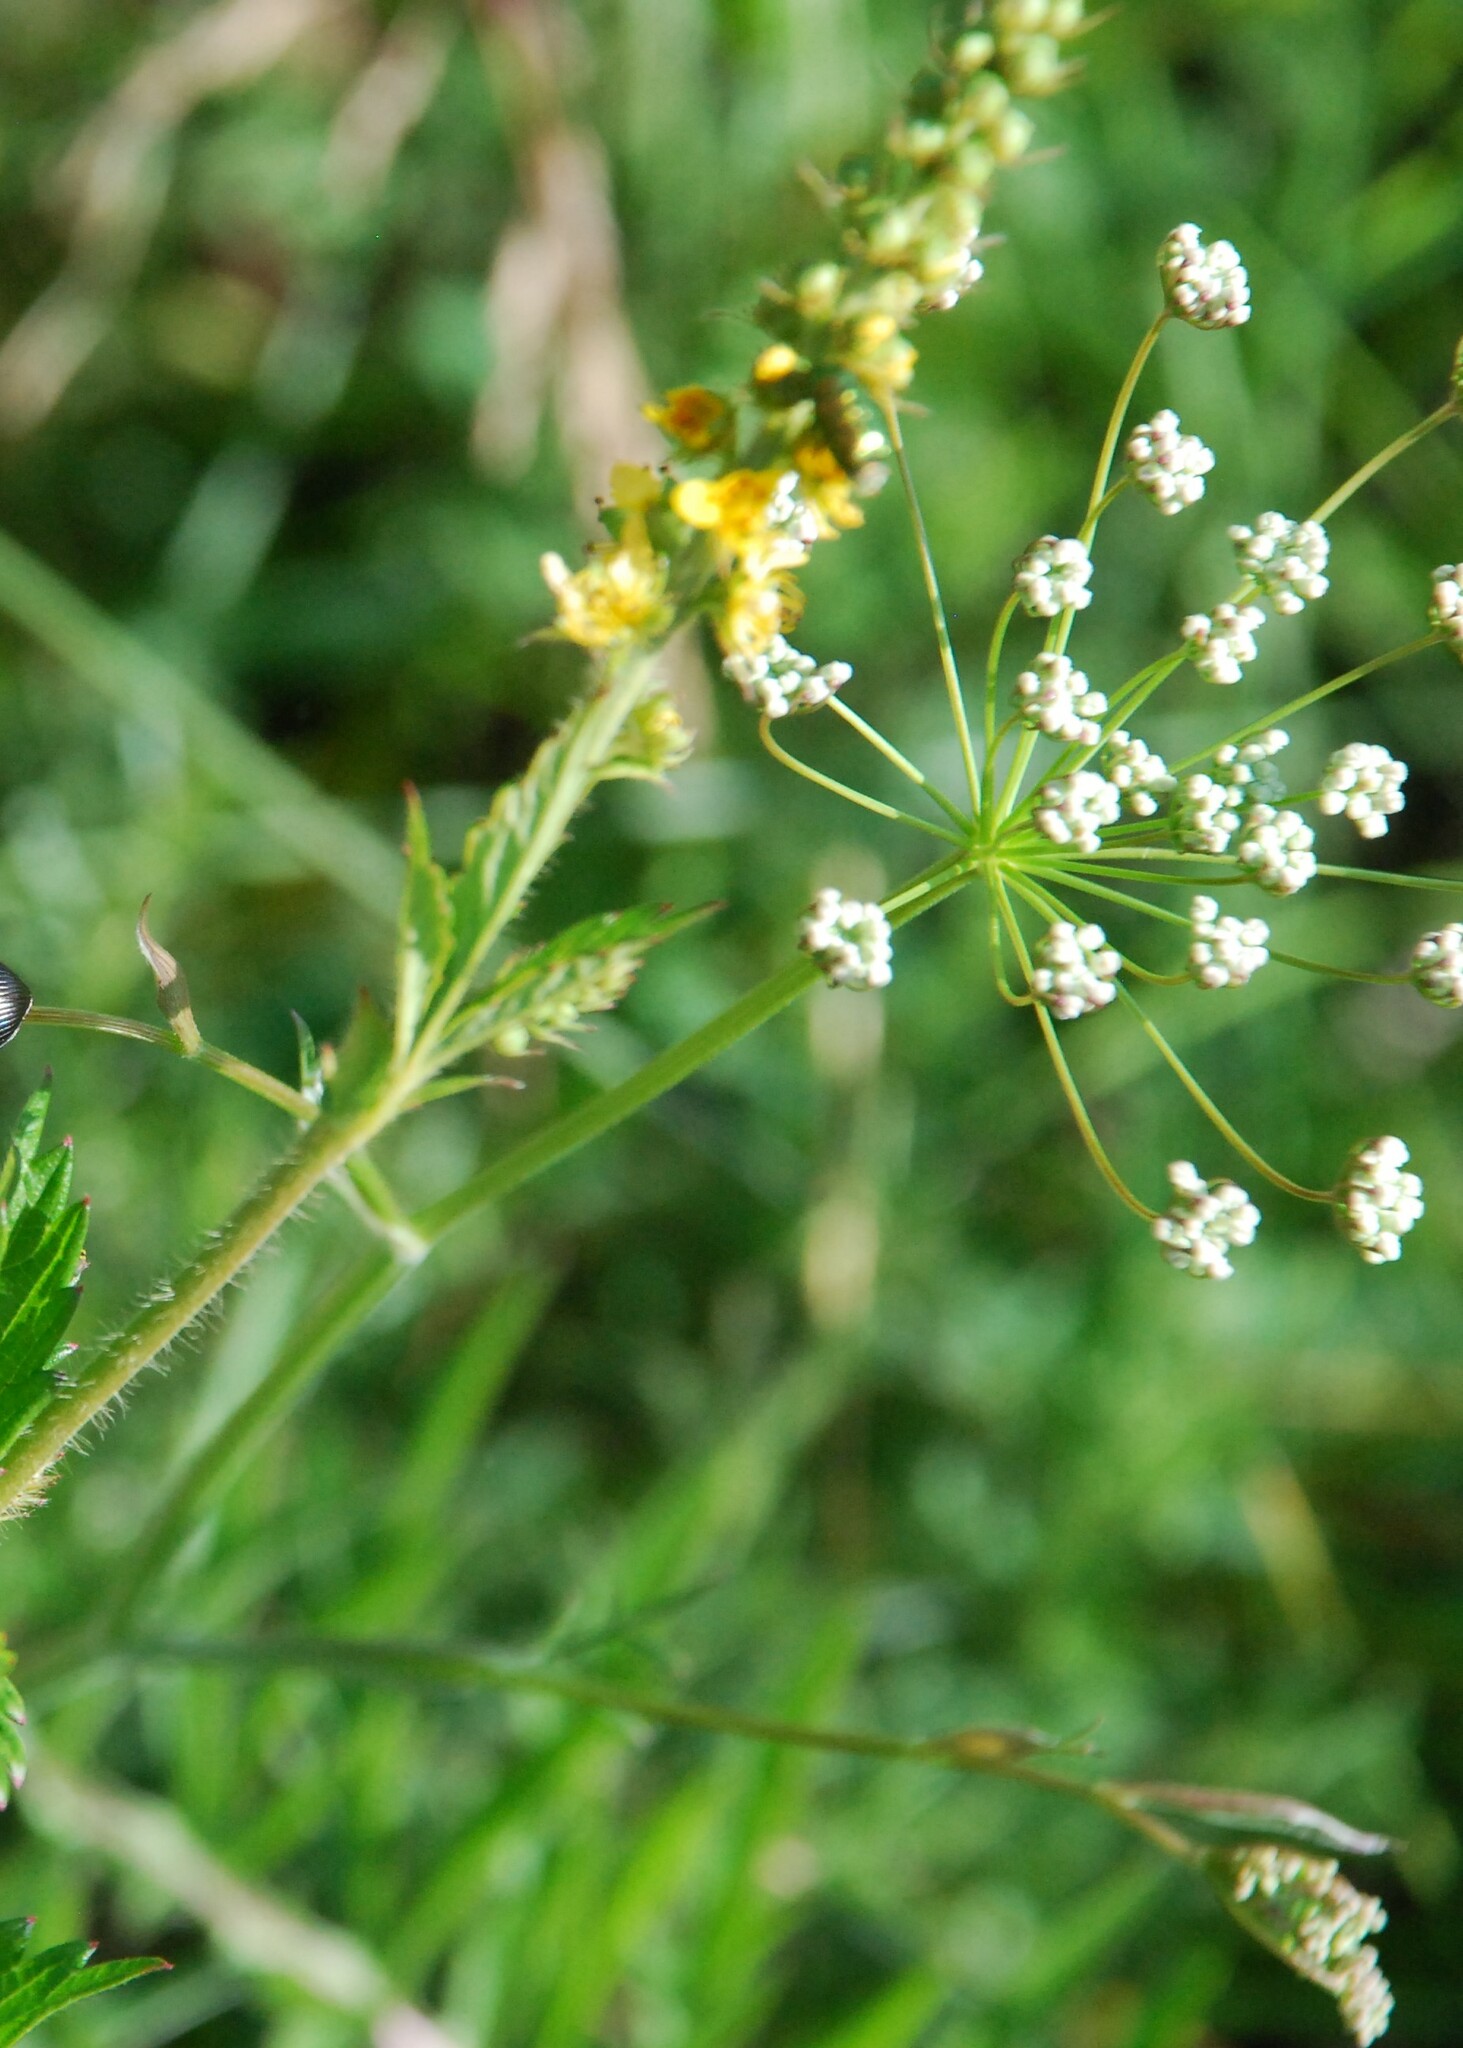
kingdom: Plantae
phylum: Tracheophyta
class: Magnoliopsida
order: Rosales
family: Rosaceae
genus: Agrimonia
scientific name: Agrimonia eupatoria
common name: Agrimony
